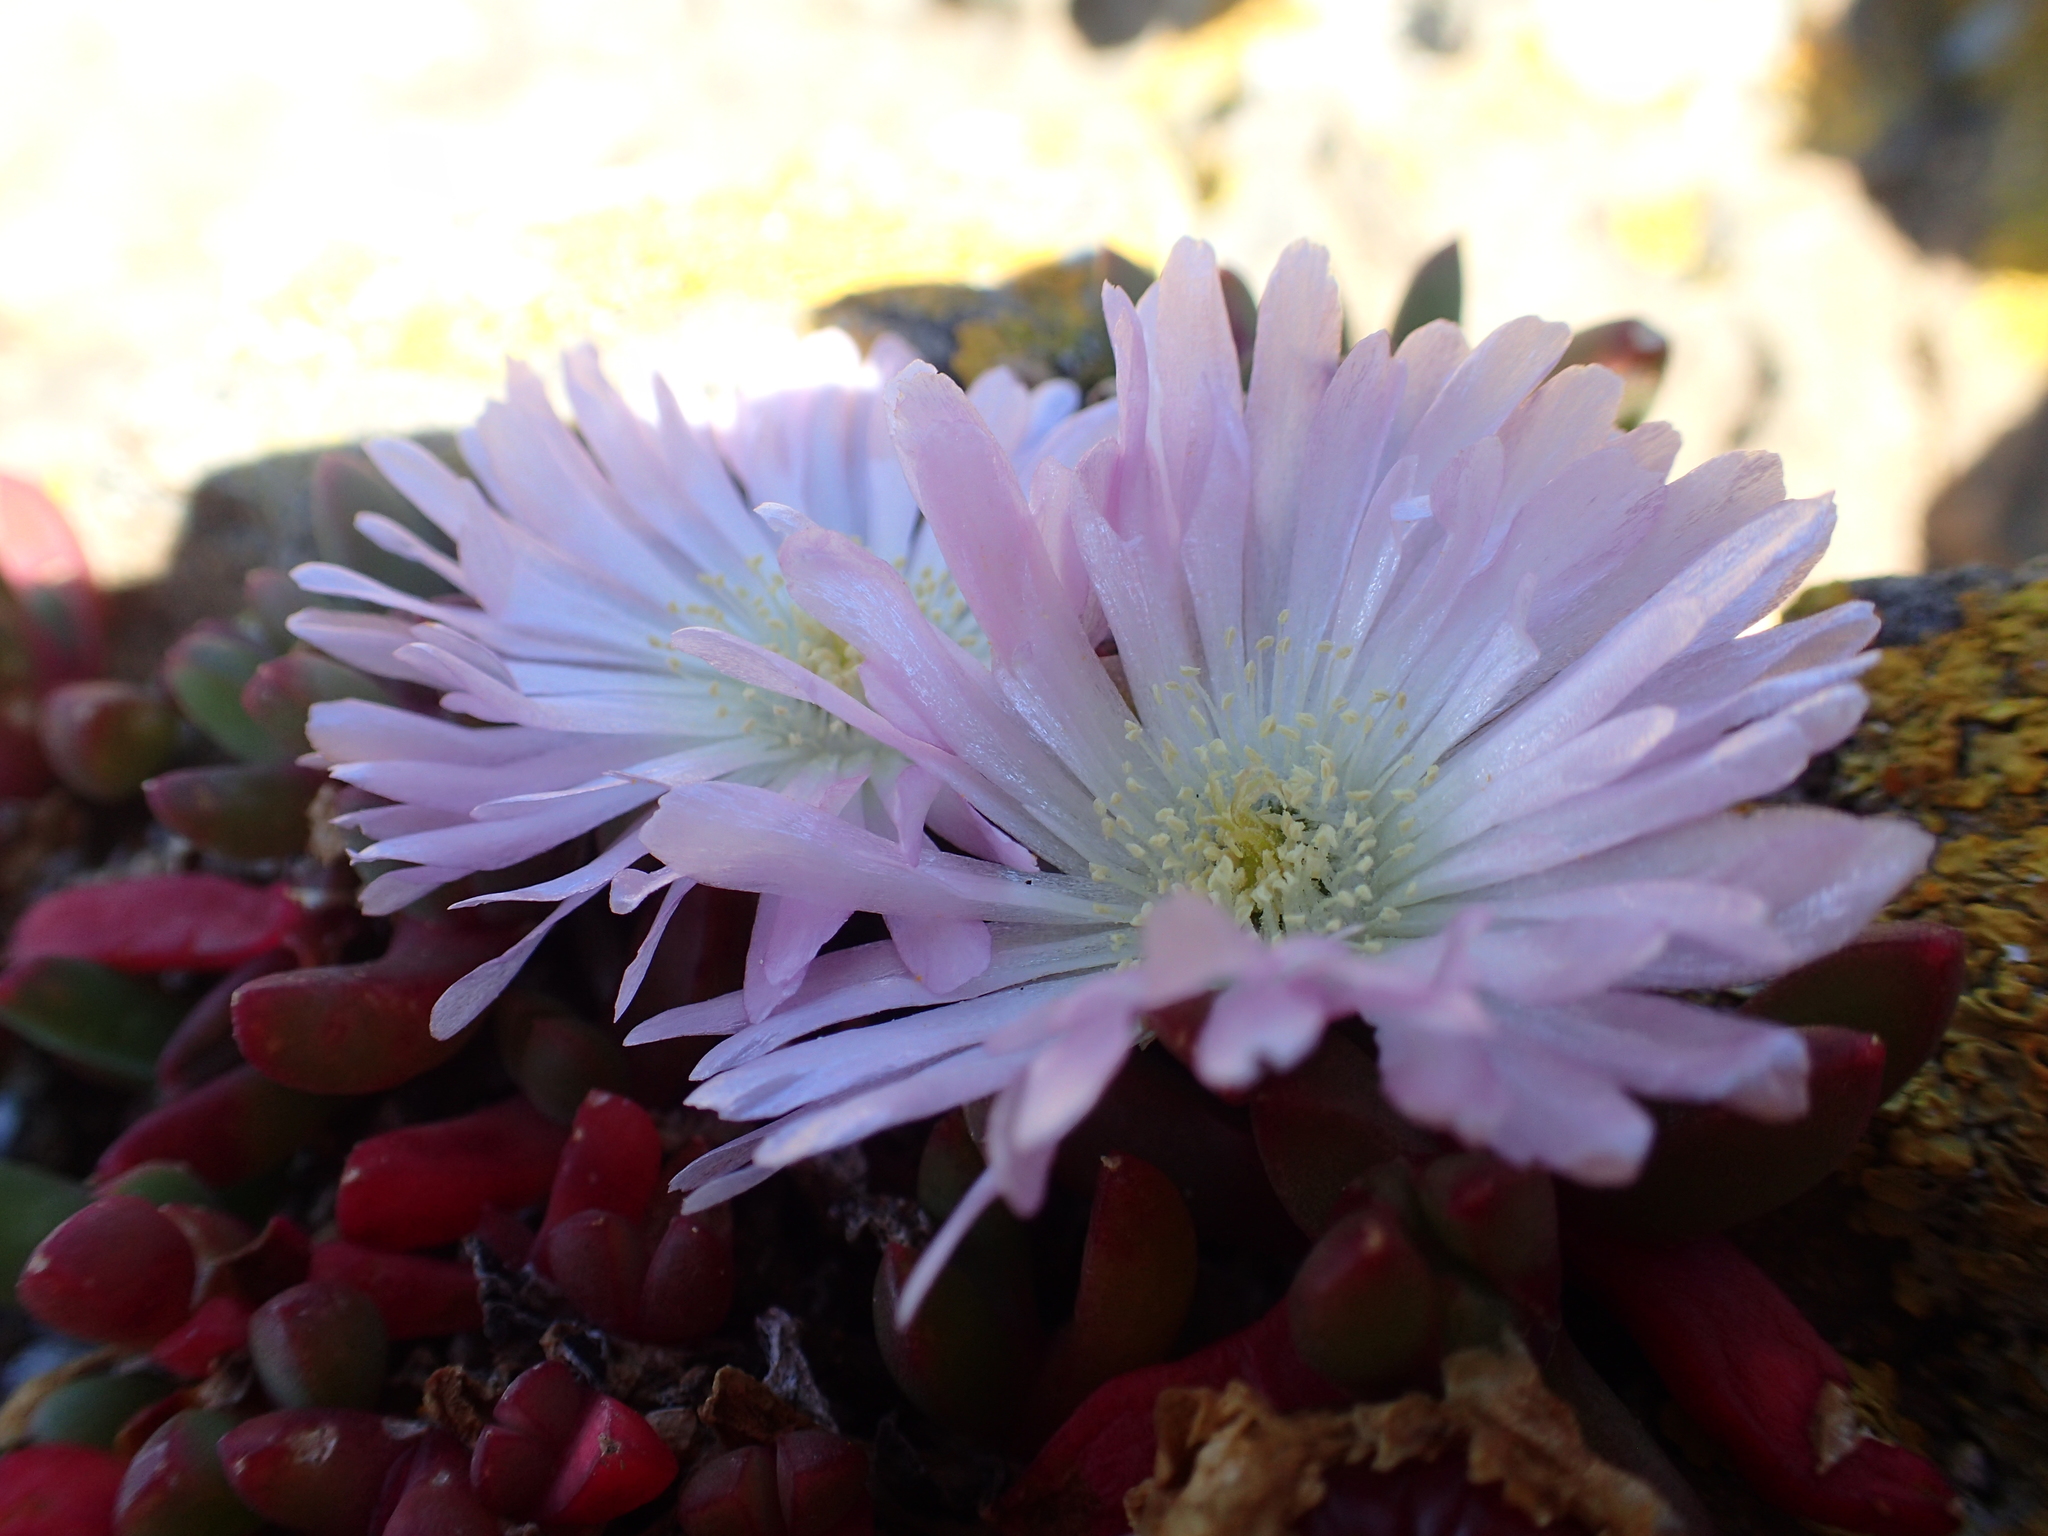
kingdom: Plantae
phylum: Tracheophyta
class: Magnoliopsida
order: Caryophyllales
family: Aizoaceae
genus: Disphyma
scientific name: Disphyma australe
